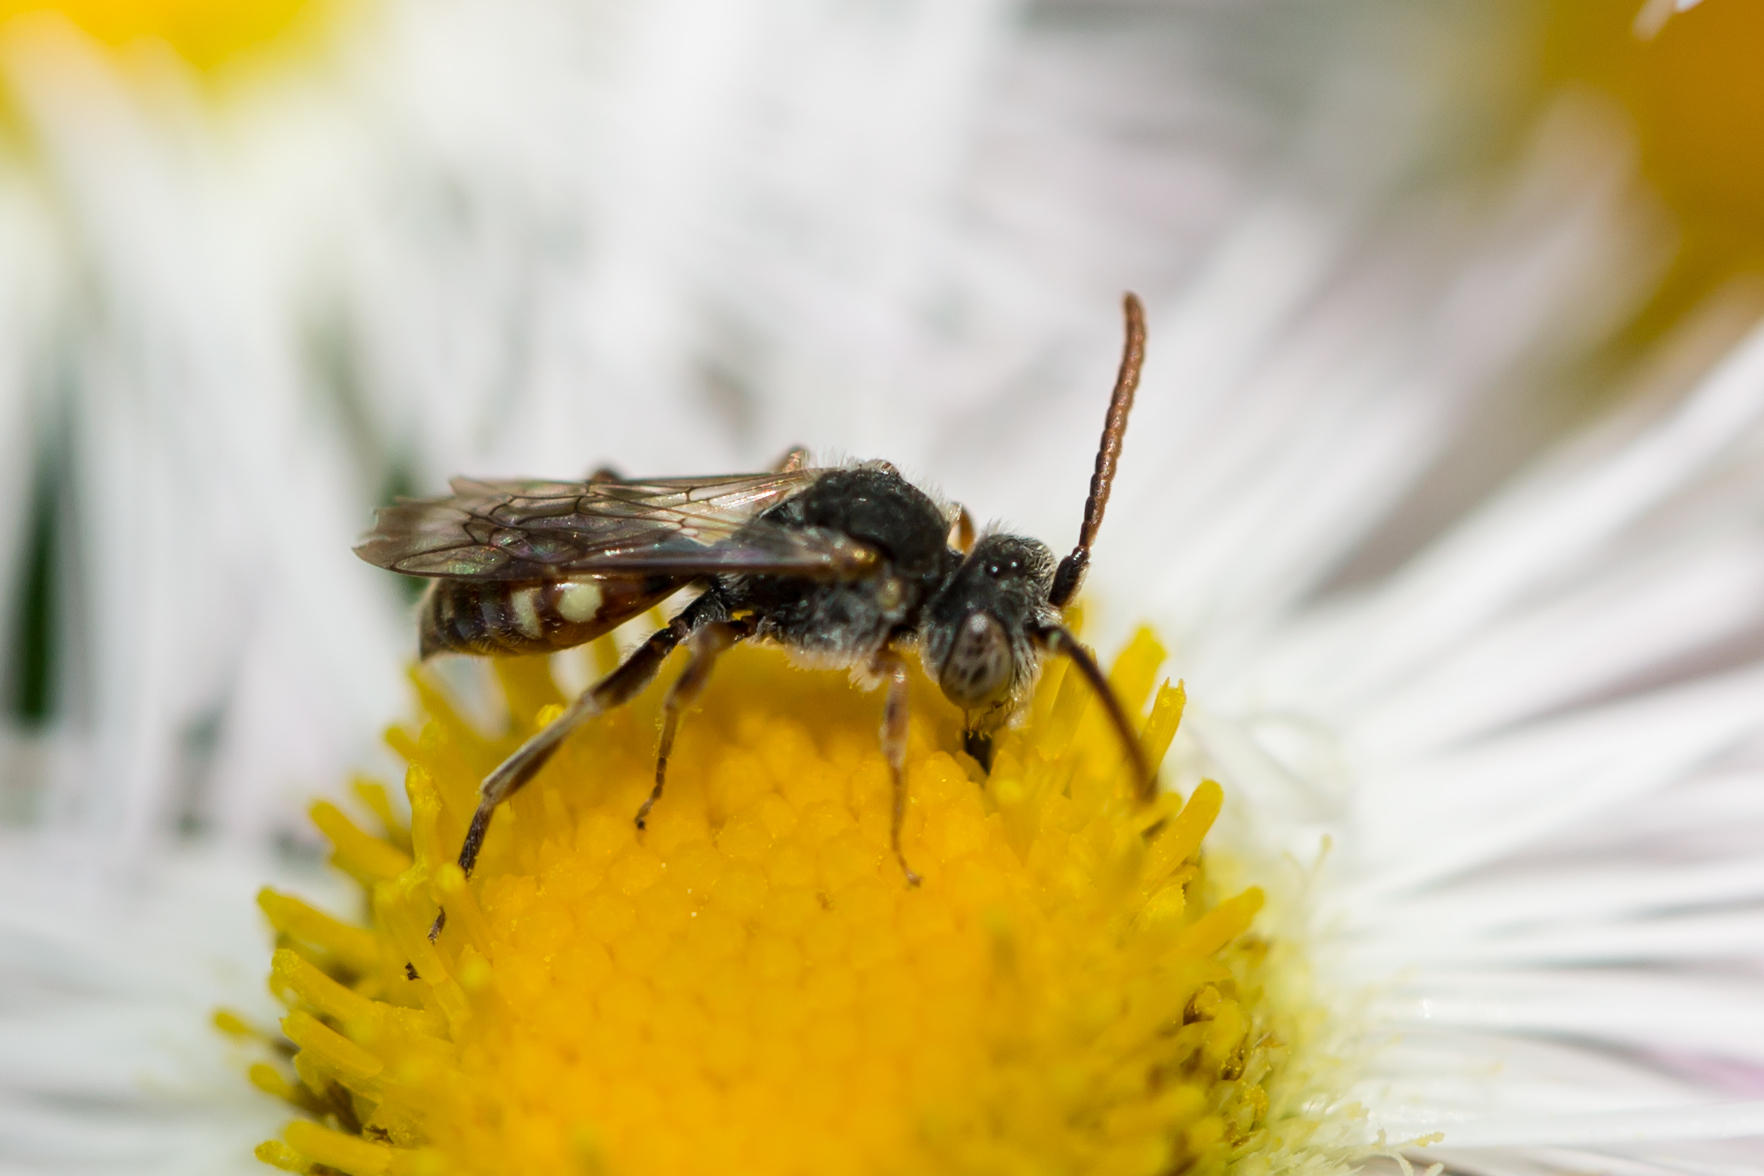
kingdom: Animalia
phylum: Arthropoda
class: Insecta
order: Hymenoptera
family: Apidae
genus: Nomada
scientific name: Nomada
